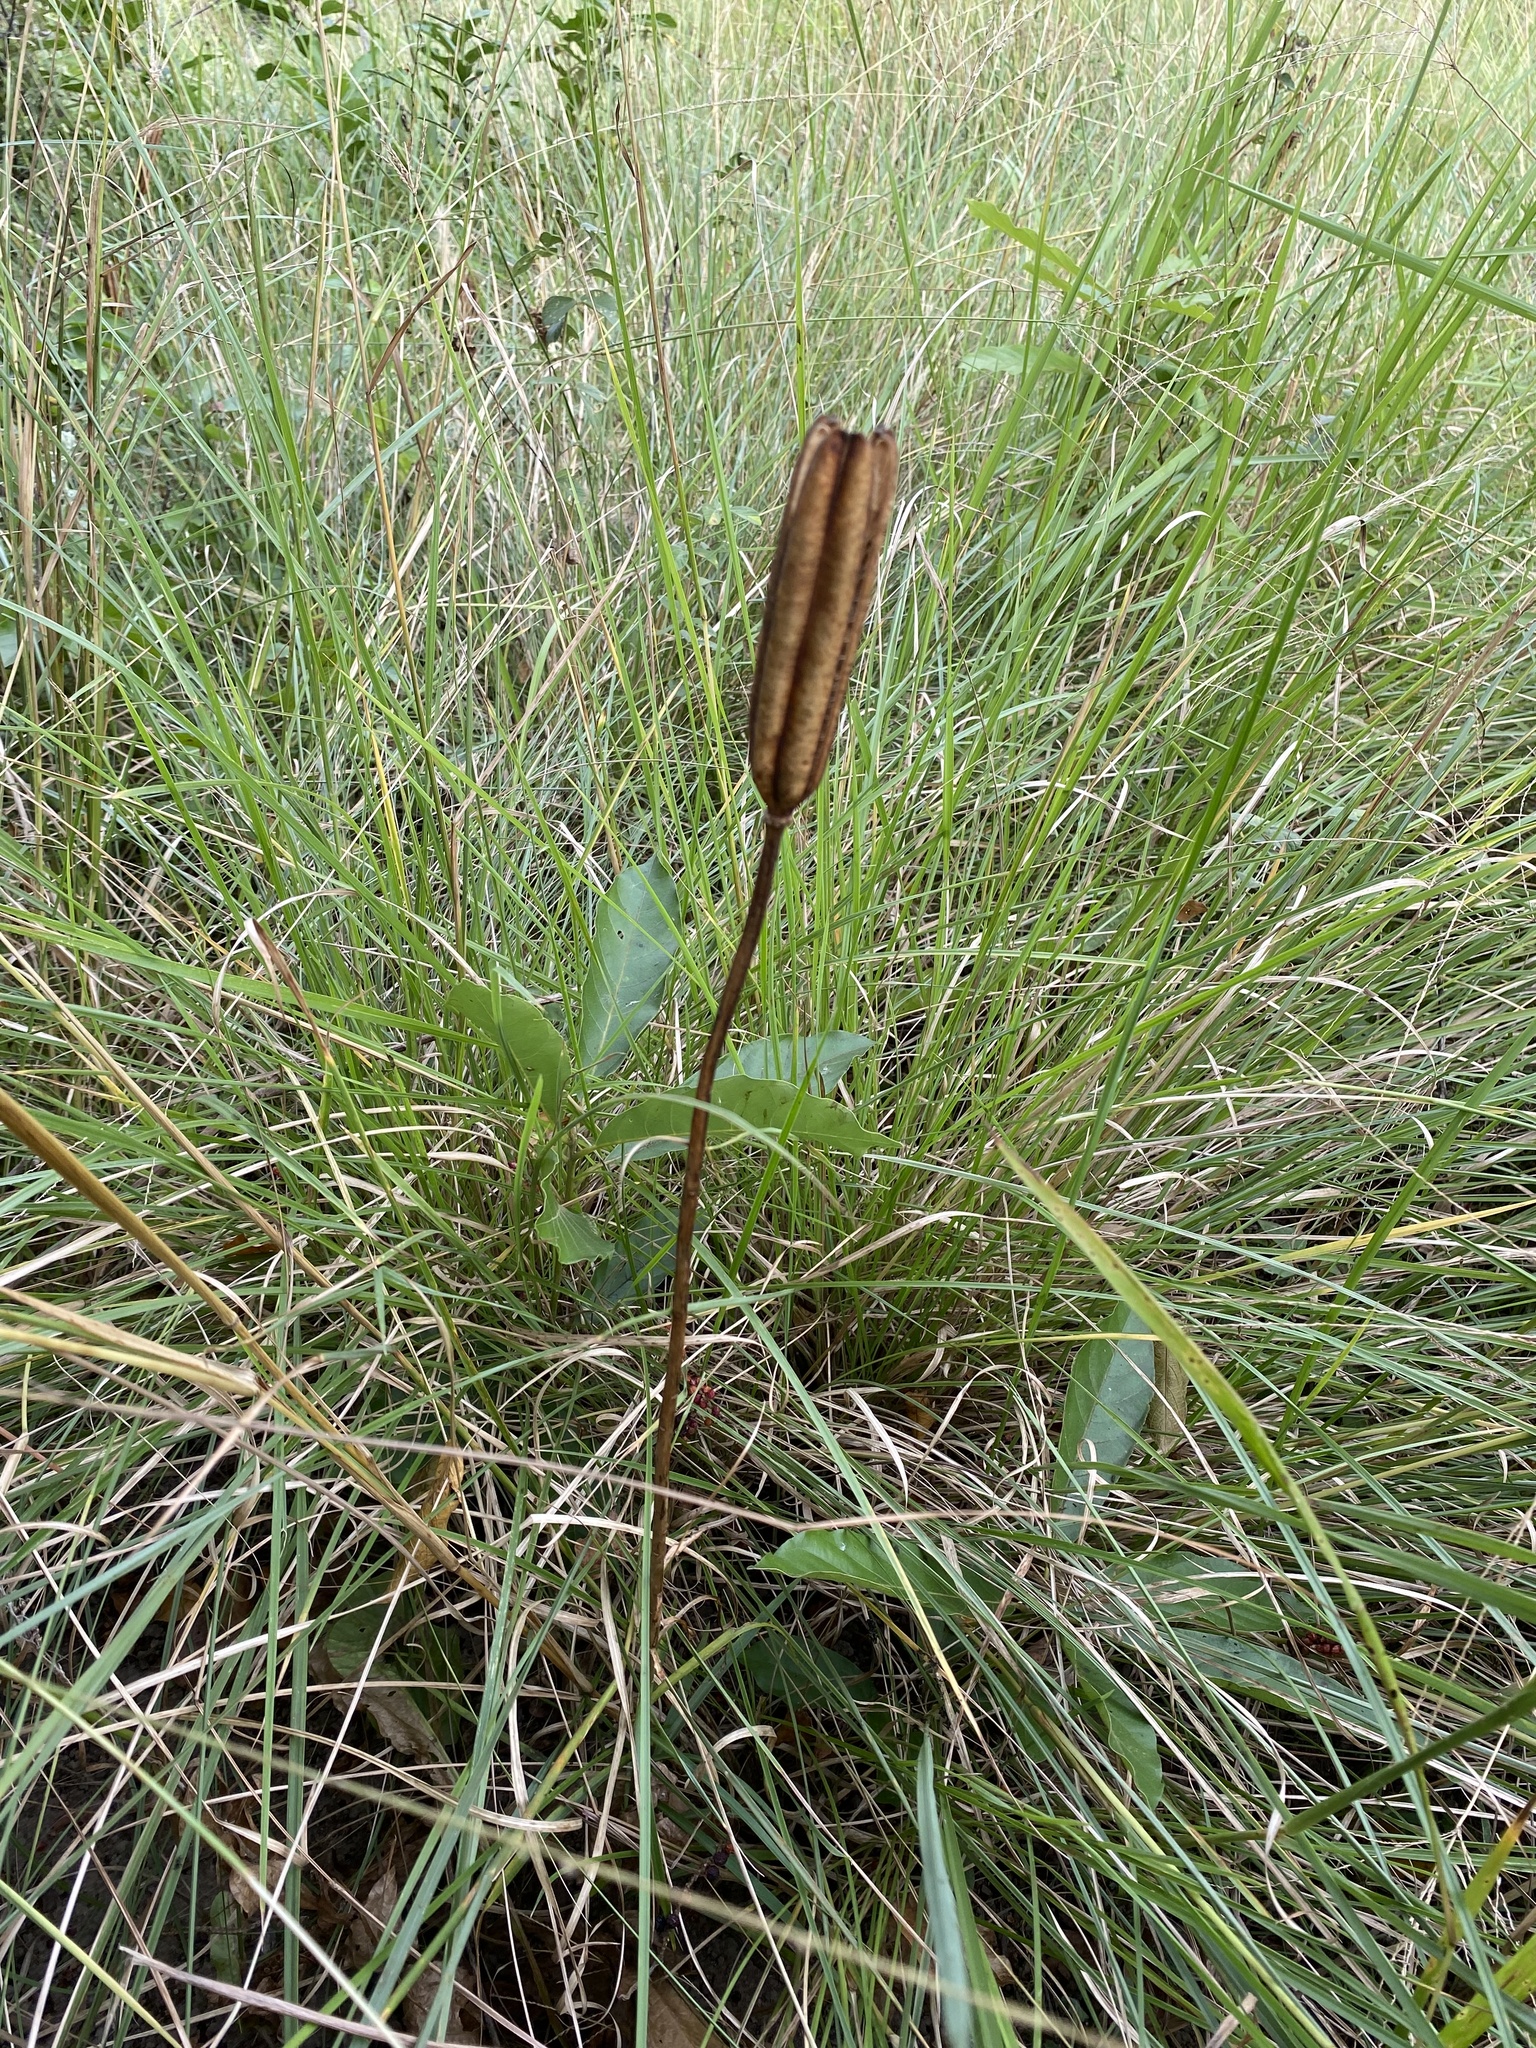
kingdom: Plantae
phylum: Tracheophyta
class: Liliopsida
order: Liliales
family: Liliaceae
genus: Lilium
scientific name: Lilium formosanum
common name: Formosa lily
